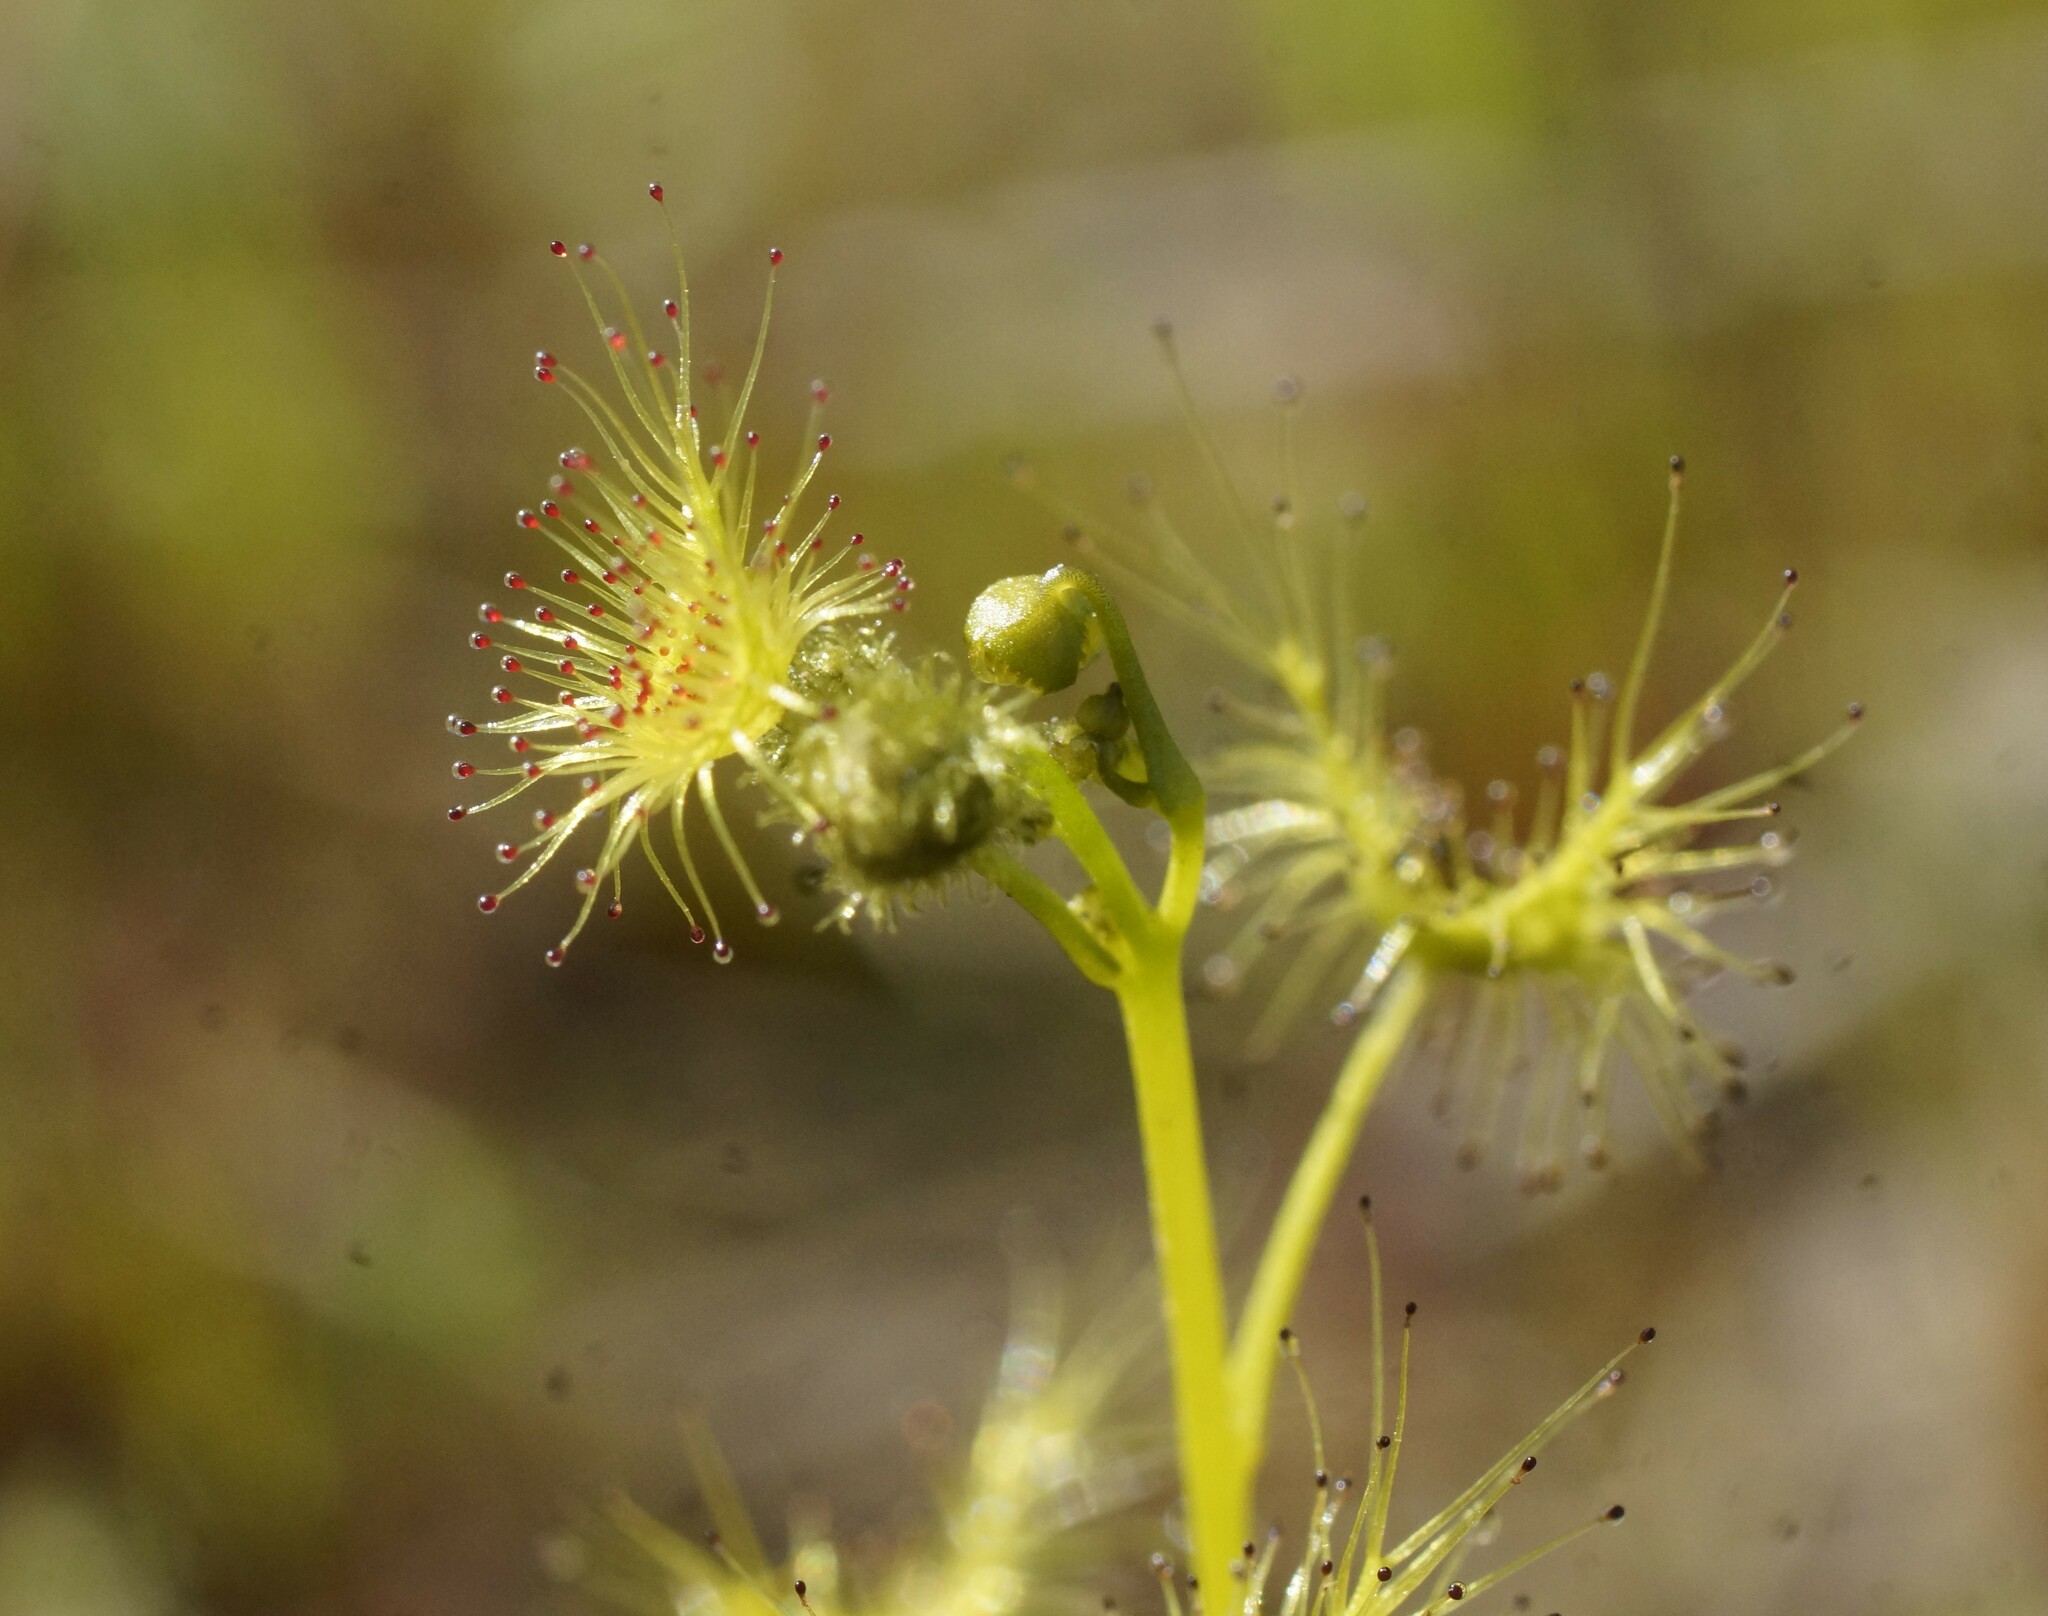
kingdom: Plantae
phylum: Tracheophyta
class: Magnoliopsida
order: Caryophyllales
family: Droseraceae
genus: Drosera
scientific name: Drosera hookeri
